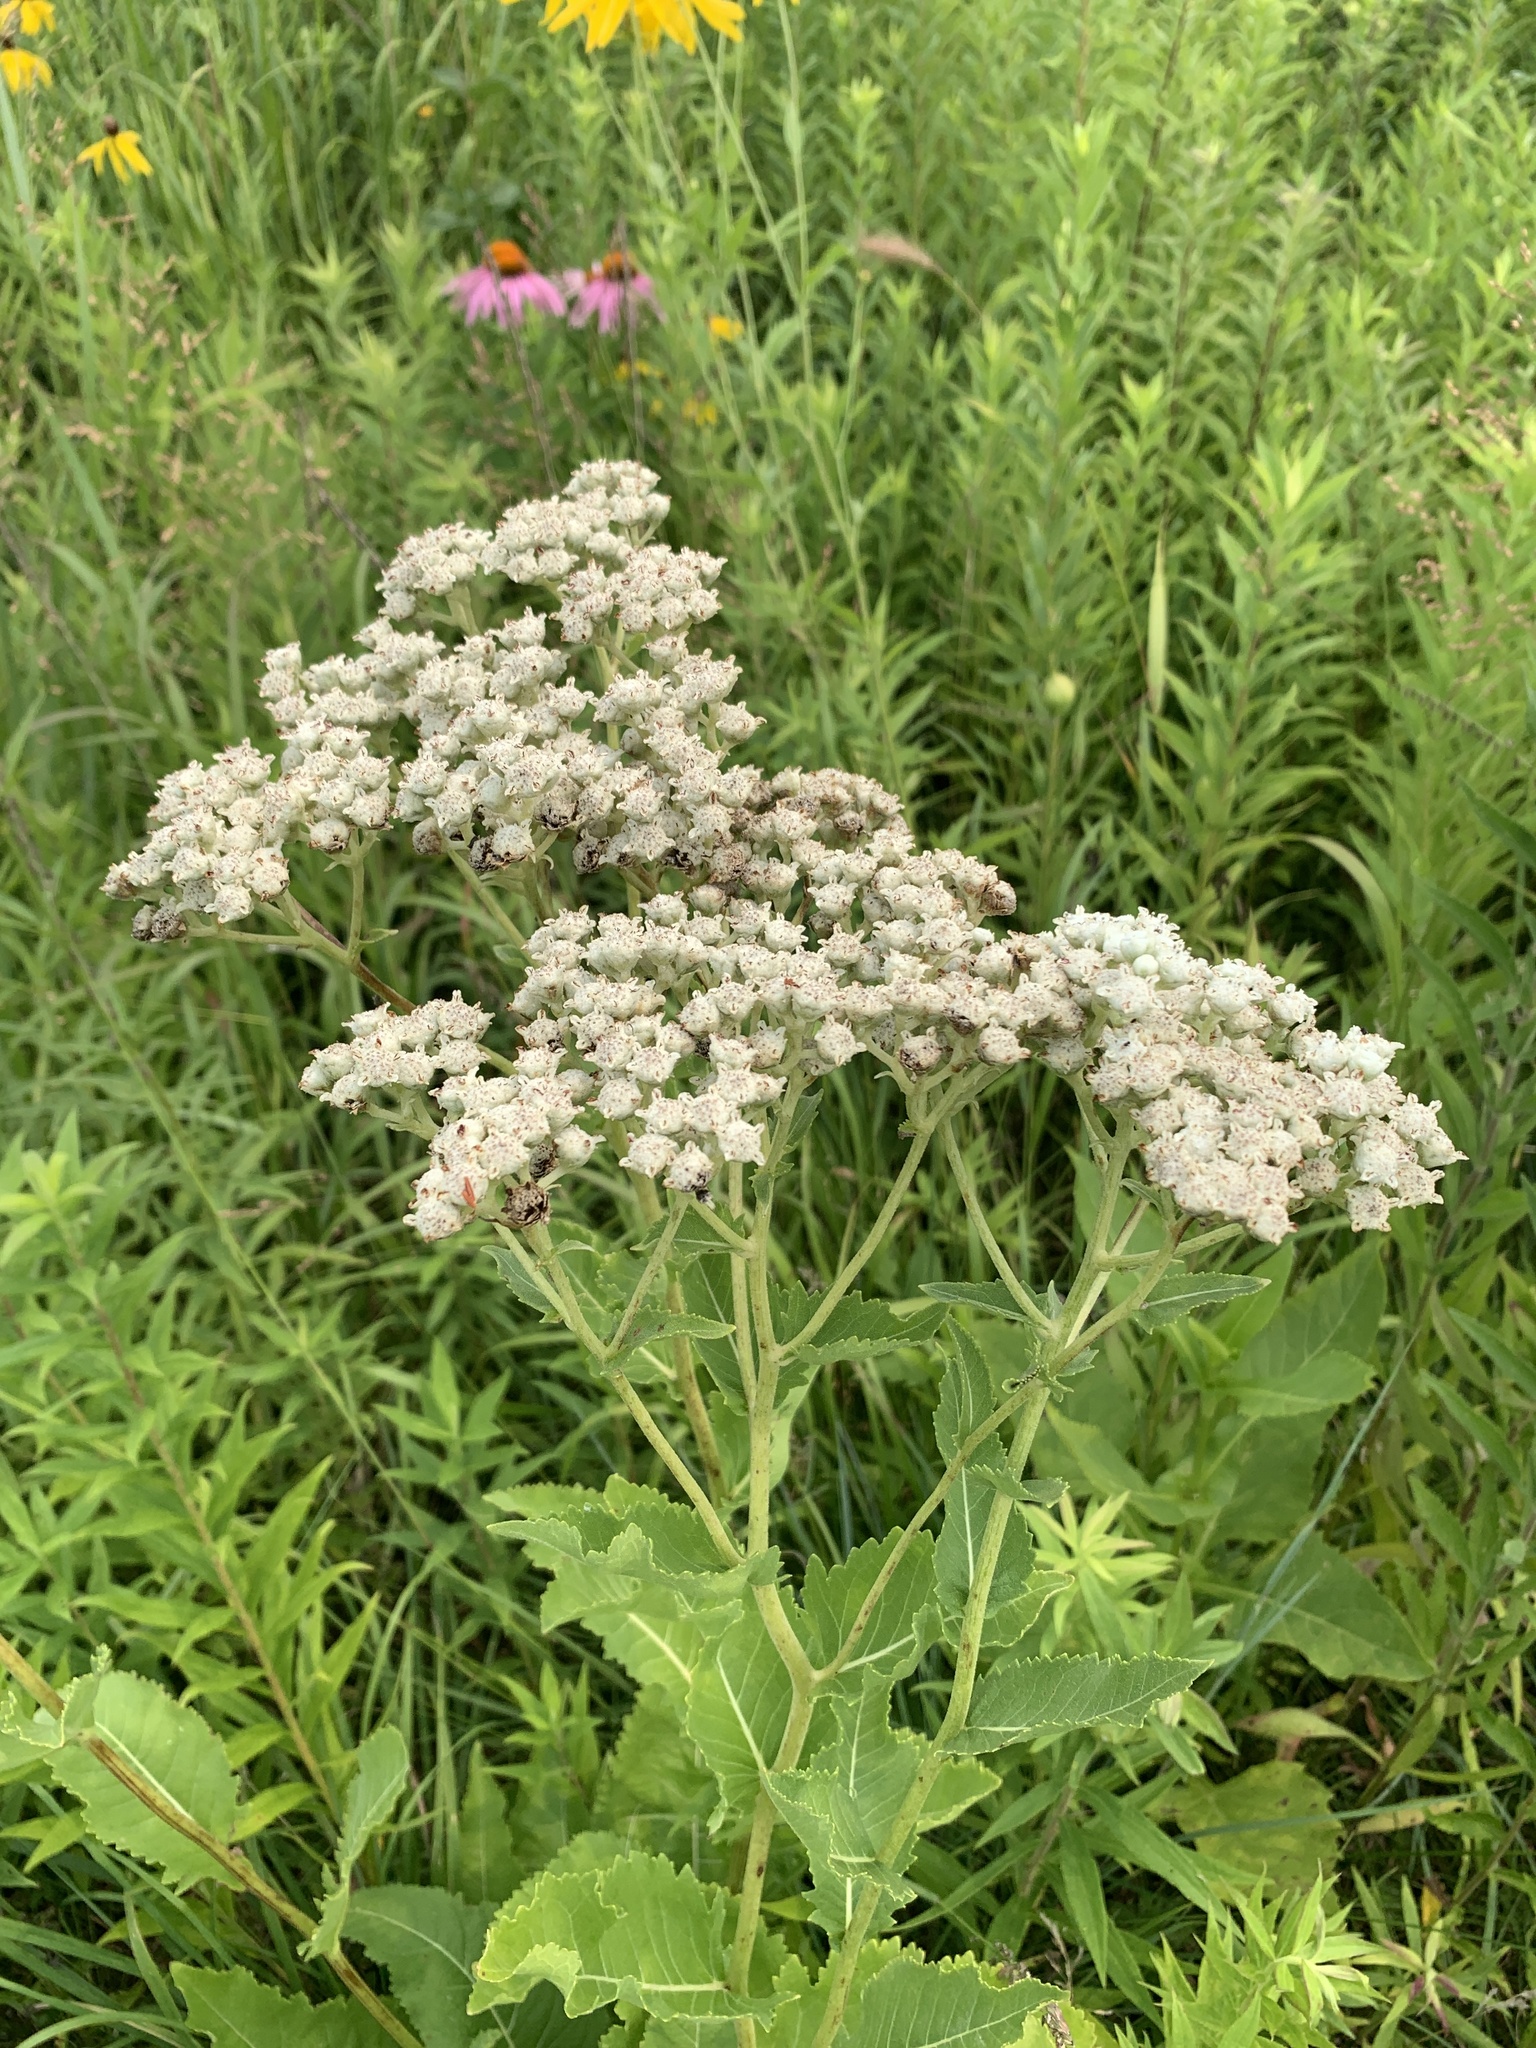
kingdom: Plantae
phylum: Tracheophyta
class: Magnoliopsida
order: Asterales
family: Asteraceae
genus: Parthenium
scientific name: Parthenium integrifolium
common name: American feverfew
